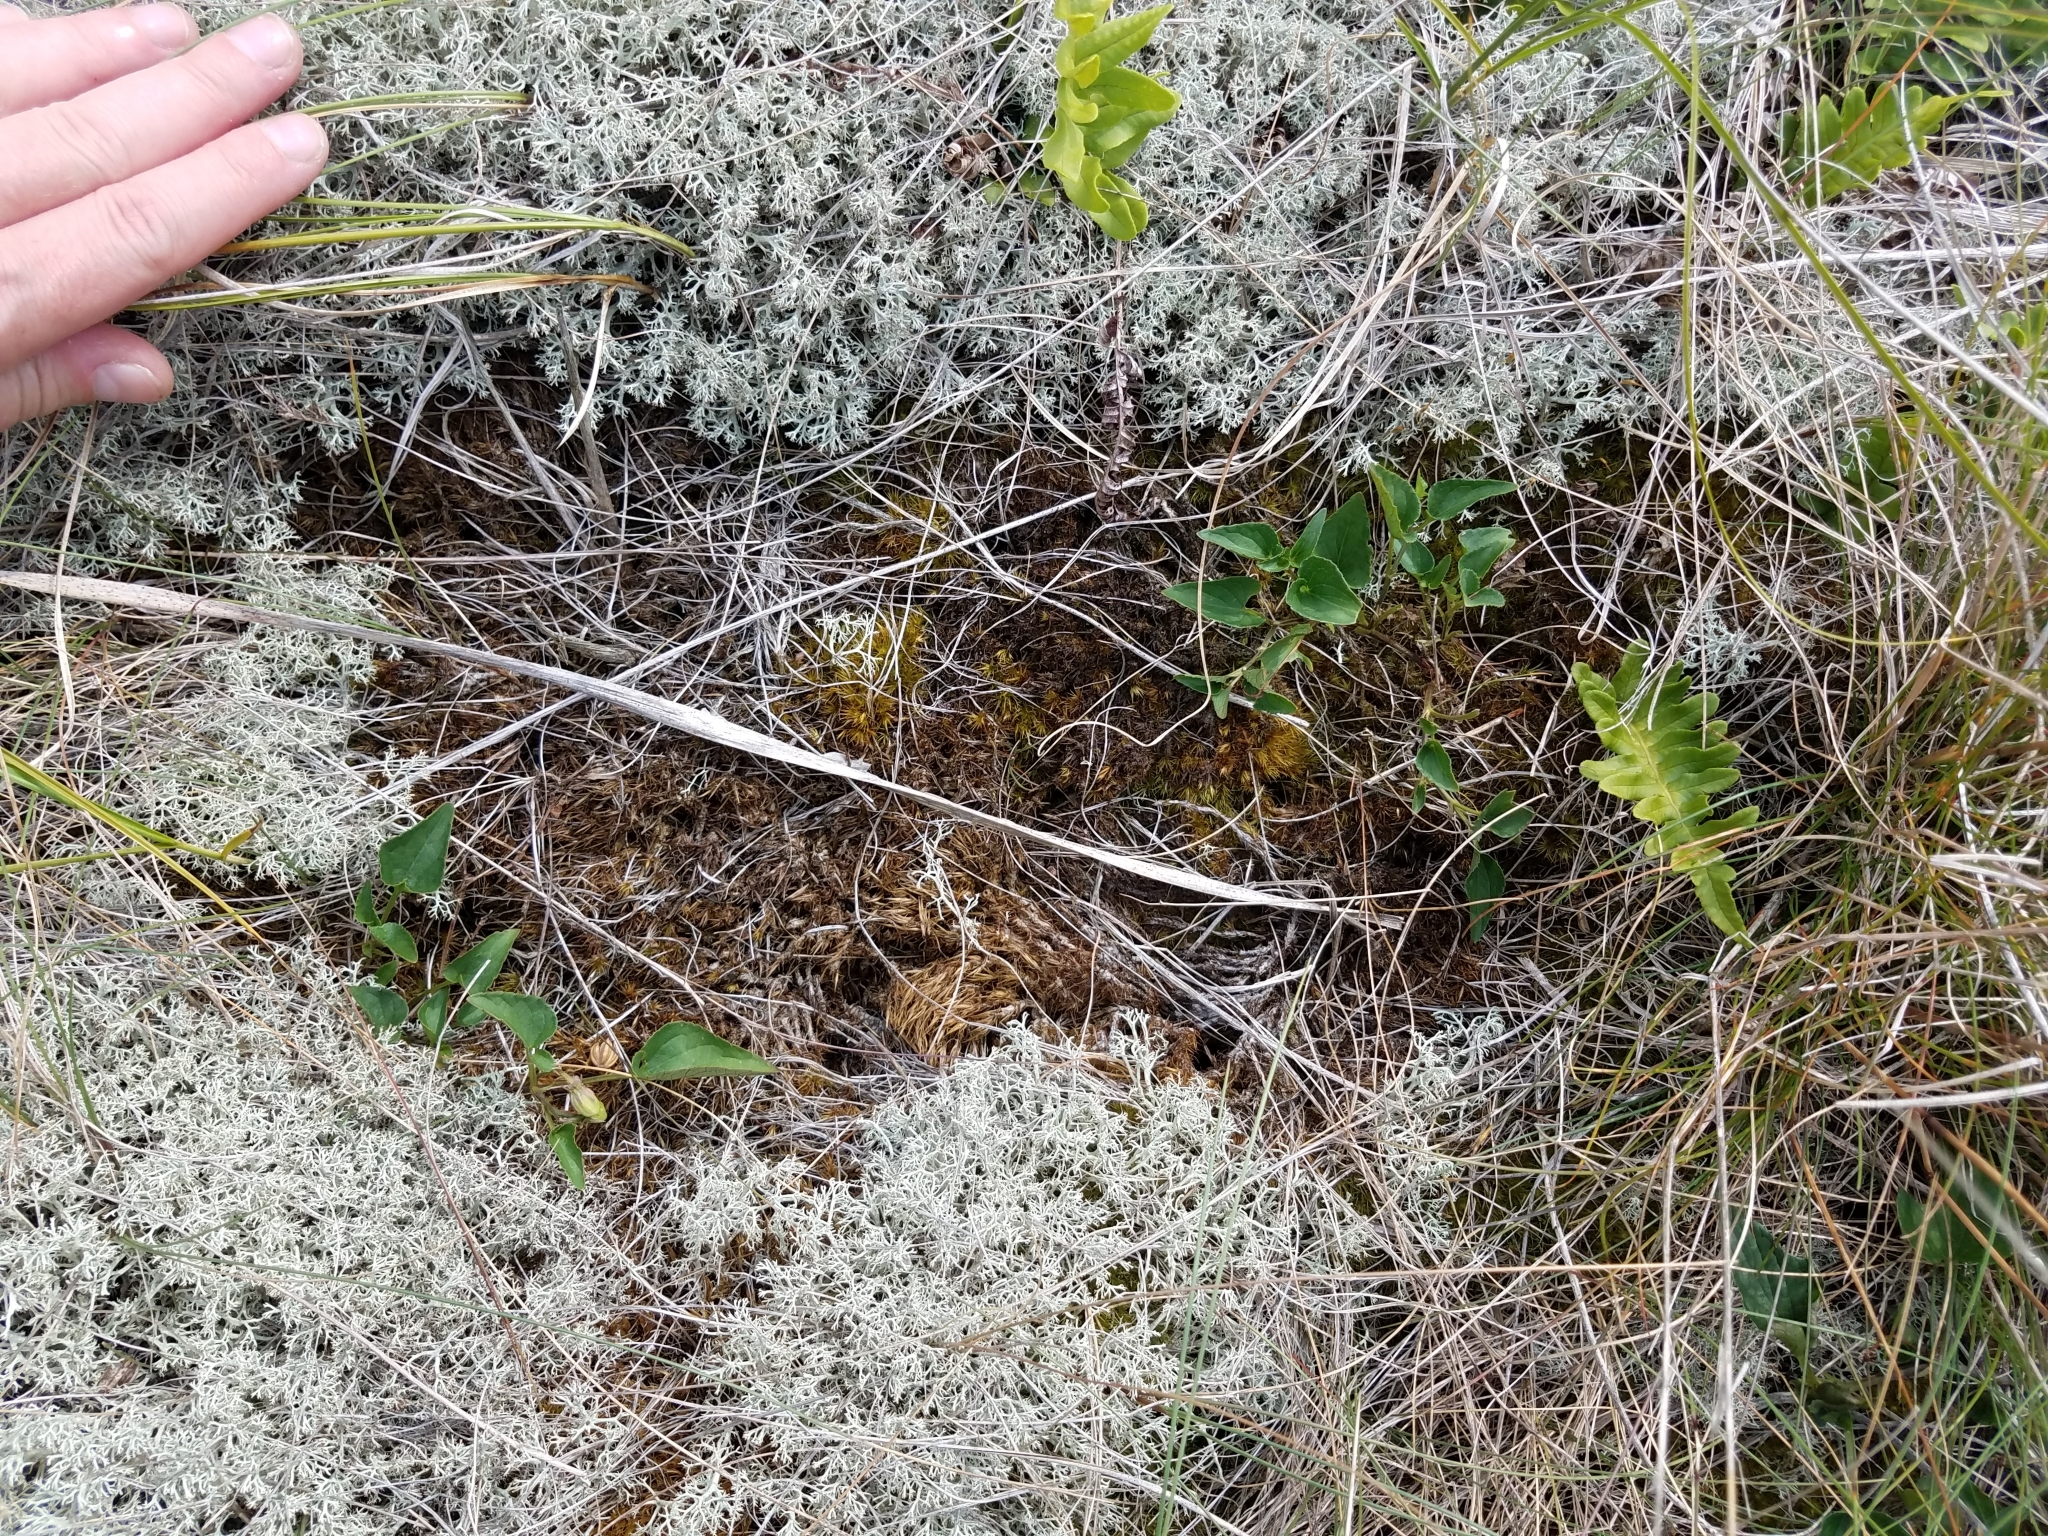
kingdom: Plantae
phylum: Tracheophyta
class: Magnoliopsida
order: Malpighiales
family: Violaceae
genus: Viola
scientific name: Viola canina
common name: Heath dog-violet
